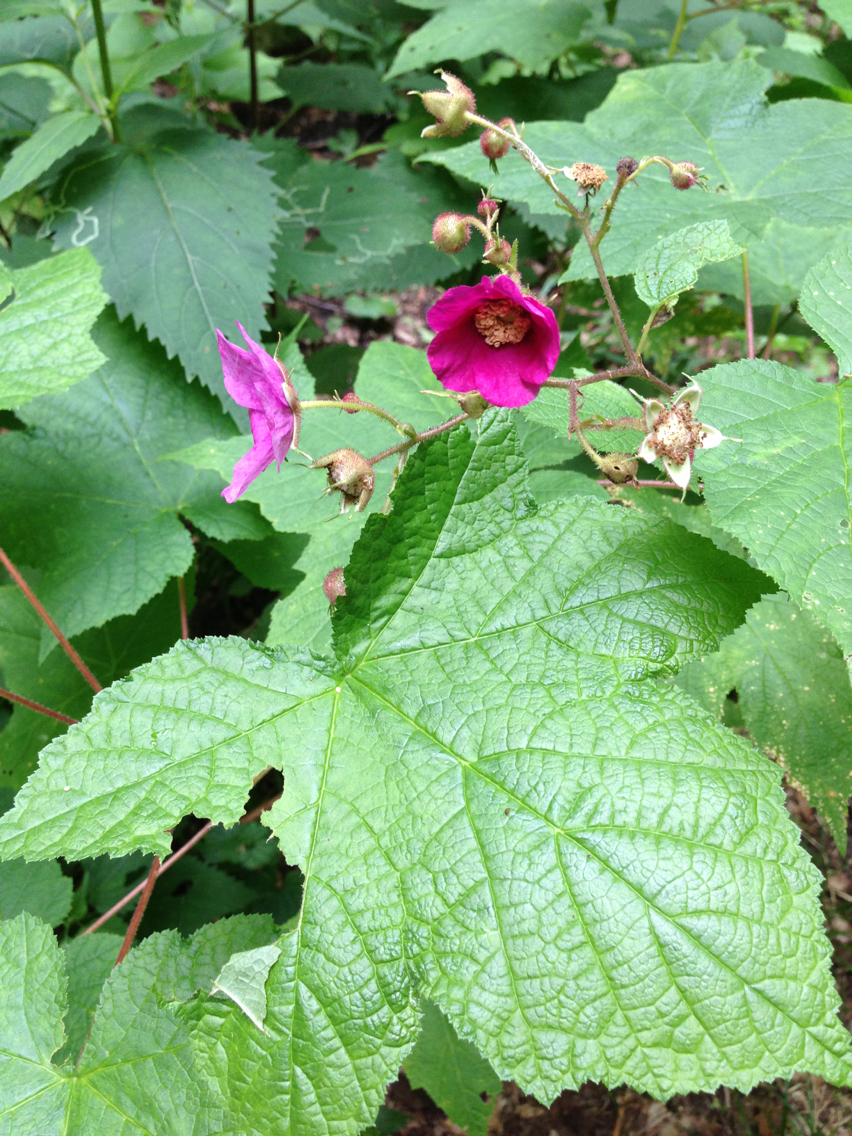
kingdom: Plantae
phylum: Tracheophyta
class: Magnoliopsida
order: Rosales
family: Rosaceae
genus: Rubus
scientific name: Rubus odoratus
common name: Purple-flowered raspberry
